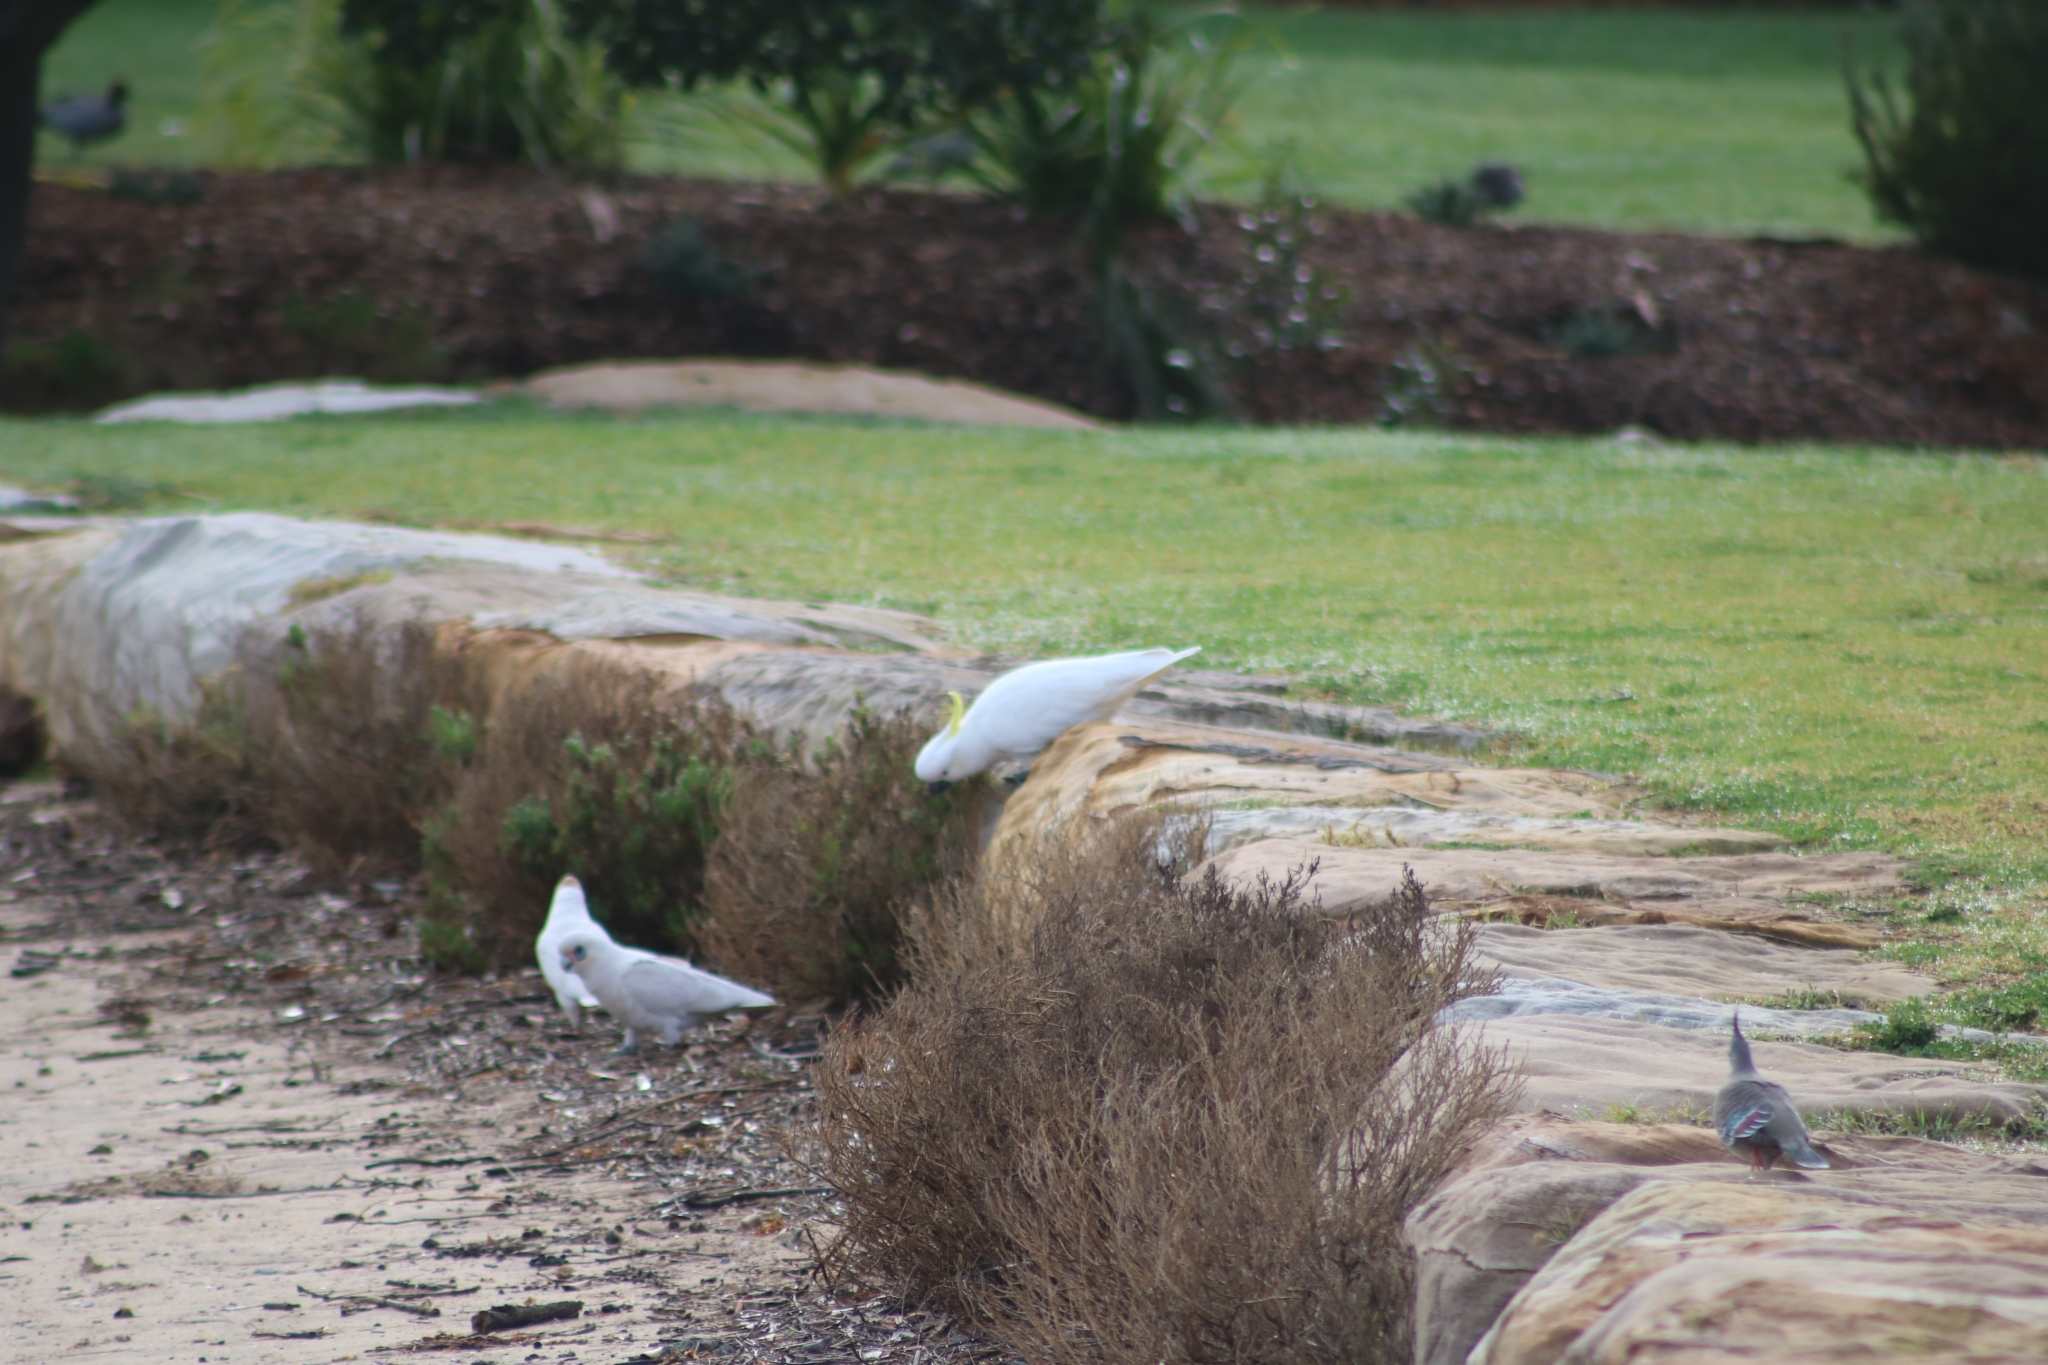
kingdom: Animalia
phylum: Chordata
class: Aves
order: Psittaciformes
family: Psittacidae
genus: Cacatua
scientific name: Cacatua galerita
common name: Sulphur-crested cockatoo
